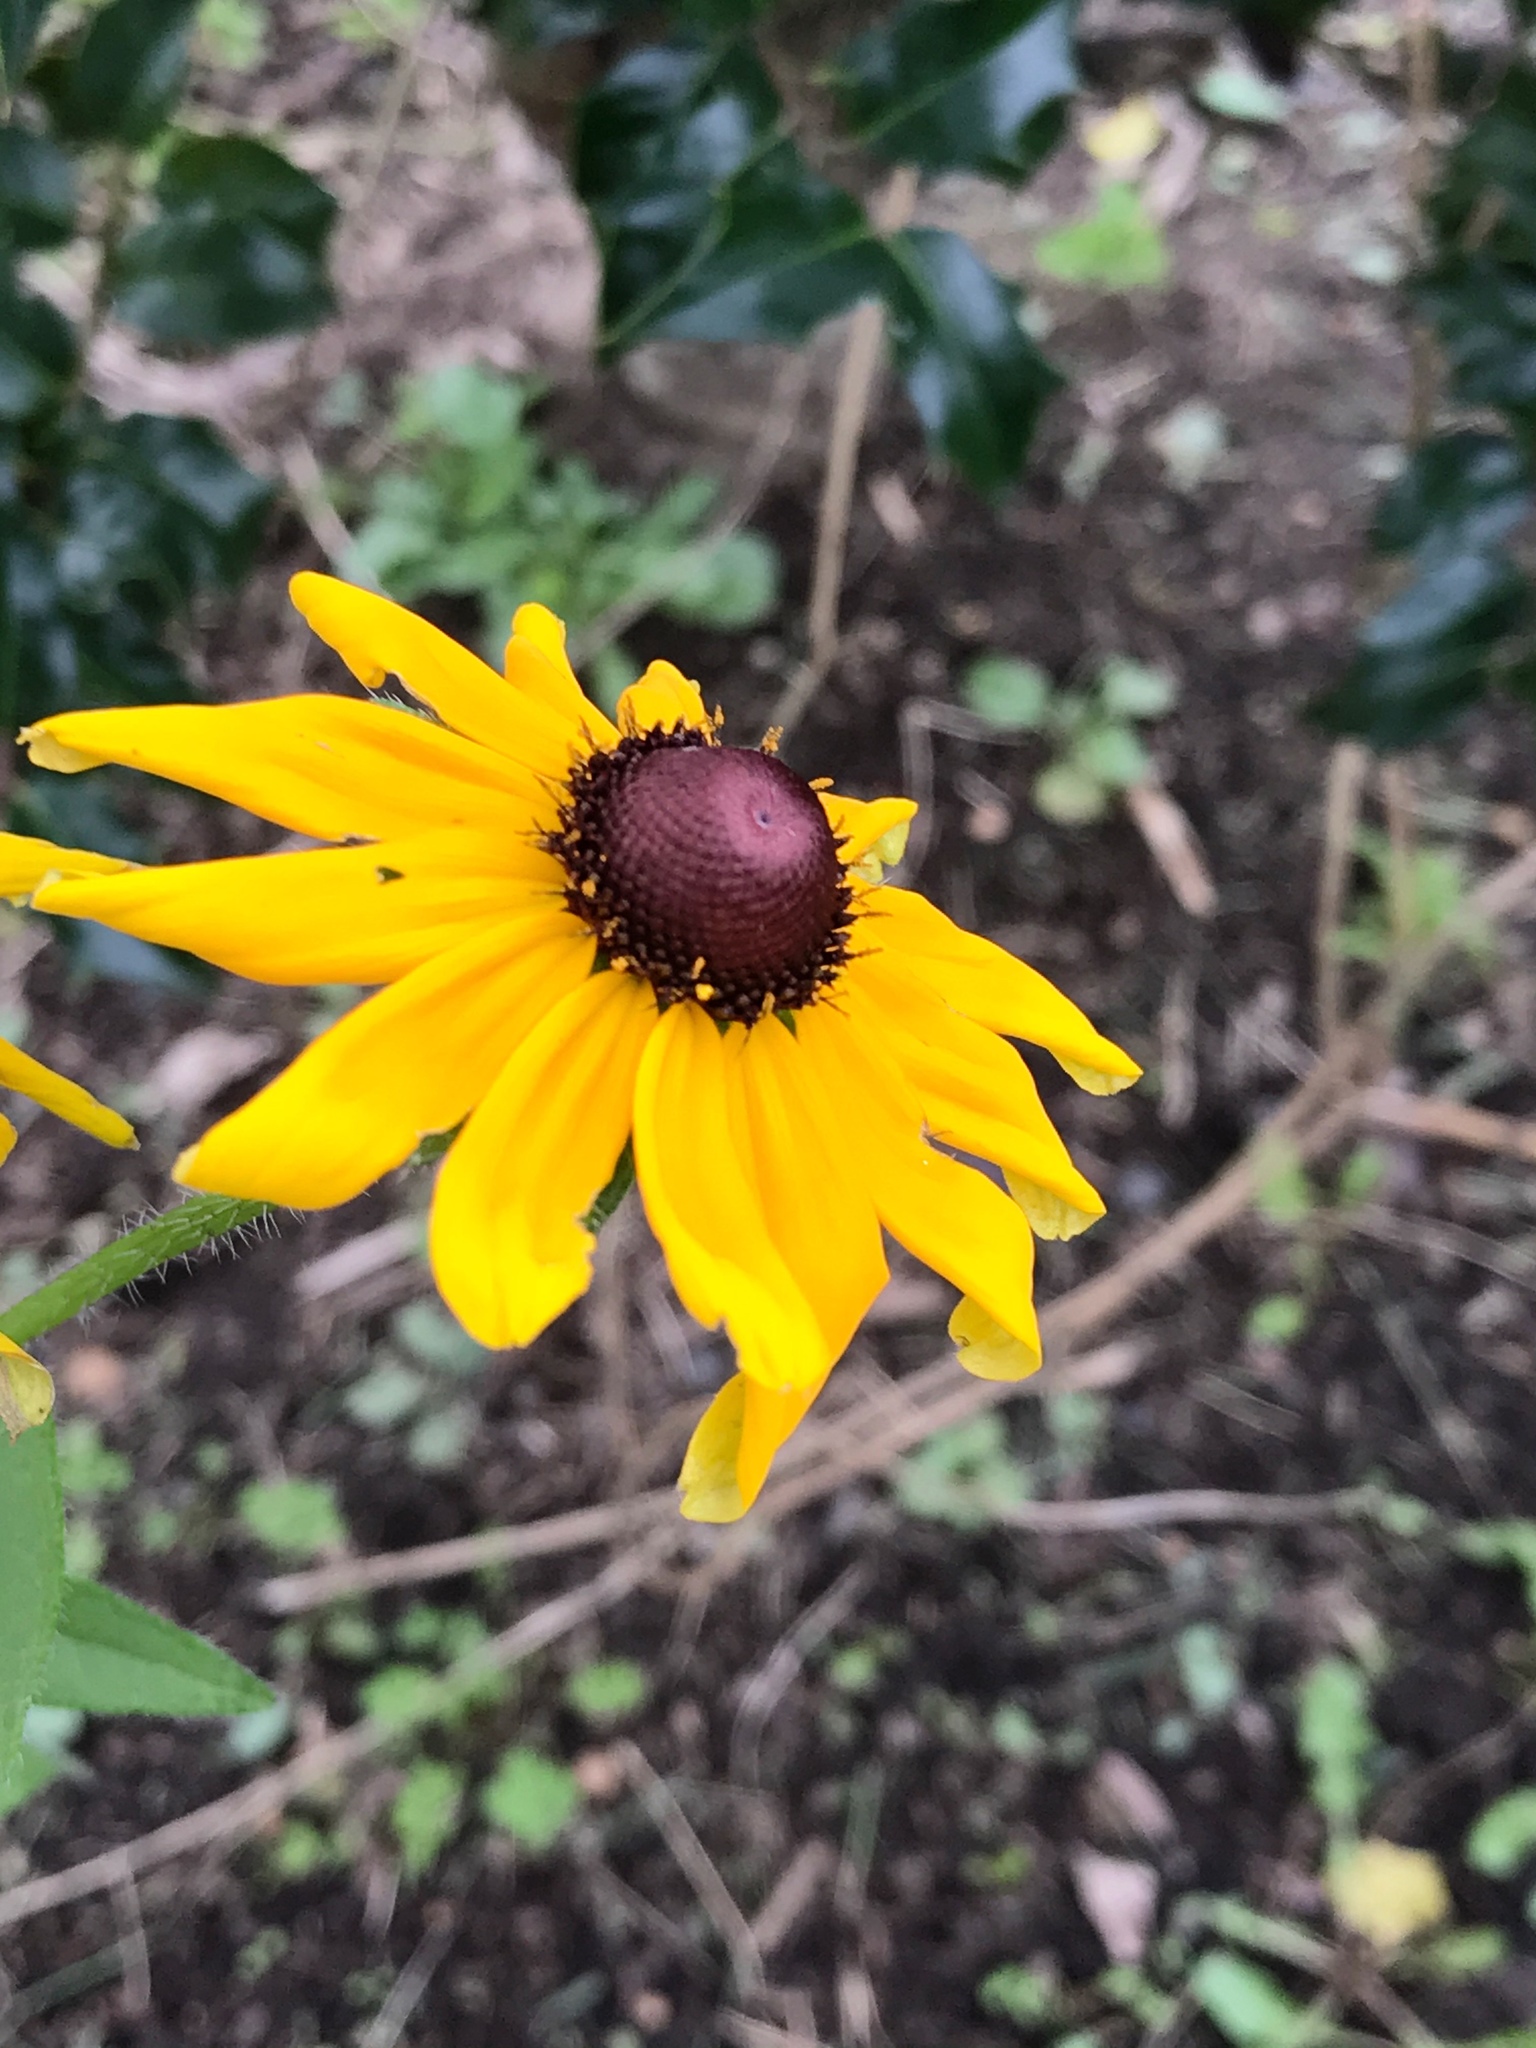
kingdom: Plantae
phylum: Tracheophyta
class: Magnoliopsida
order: Asterales
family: Asteraceae
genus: Rudbeckia
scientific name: Rudbeckia hirta
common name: Black-eyed-susan
